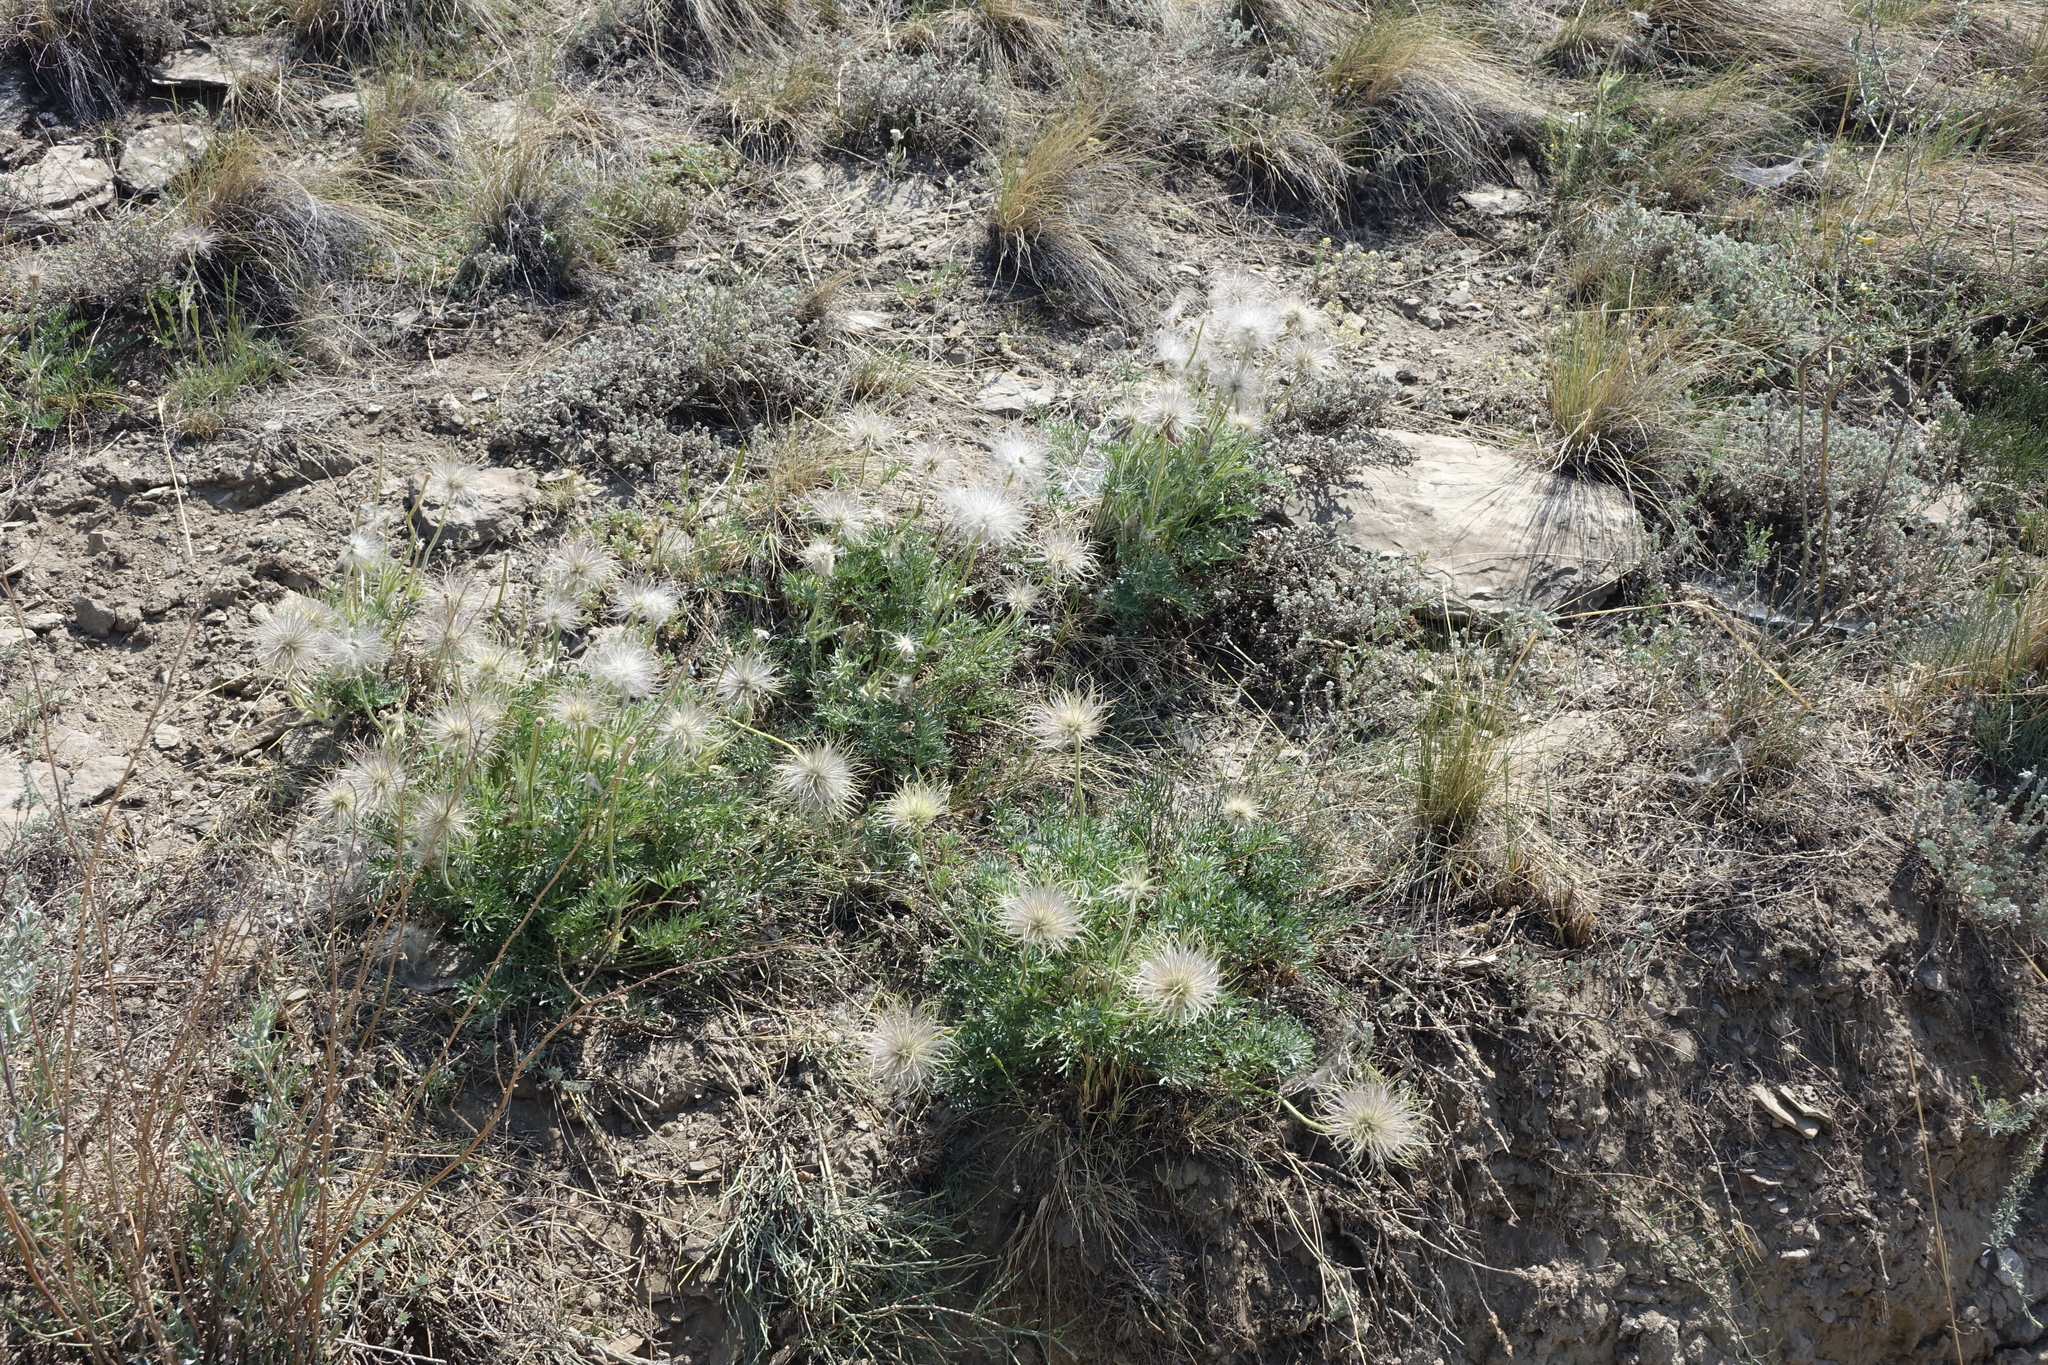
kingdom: Plantae
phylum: Tracheophyta
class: Magnoliopsida
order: Ranunculales
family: Ranunculaceae
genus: Pulsatilla
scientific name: Pulsatilla turczaninovii
